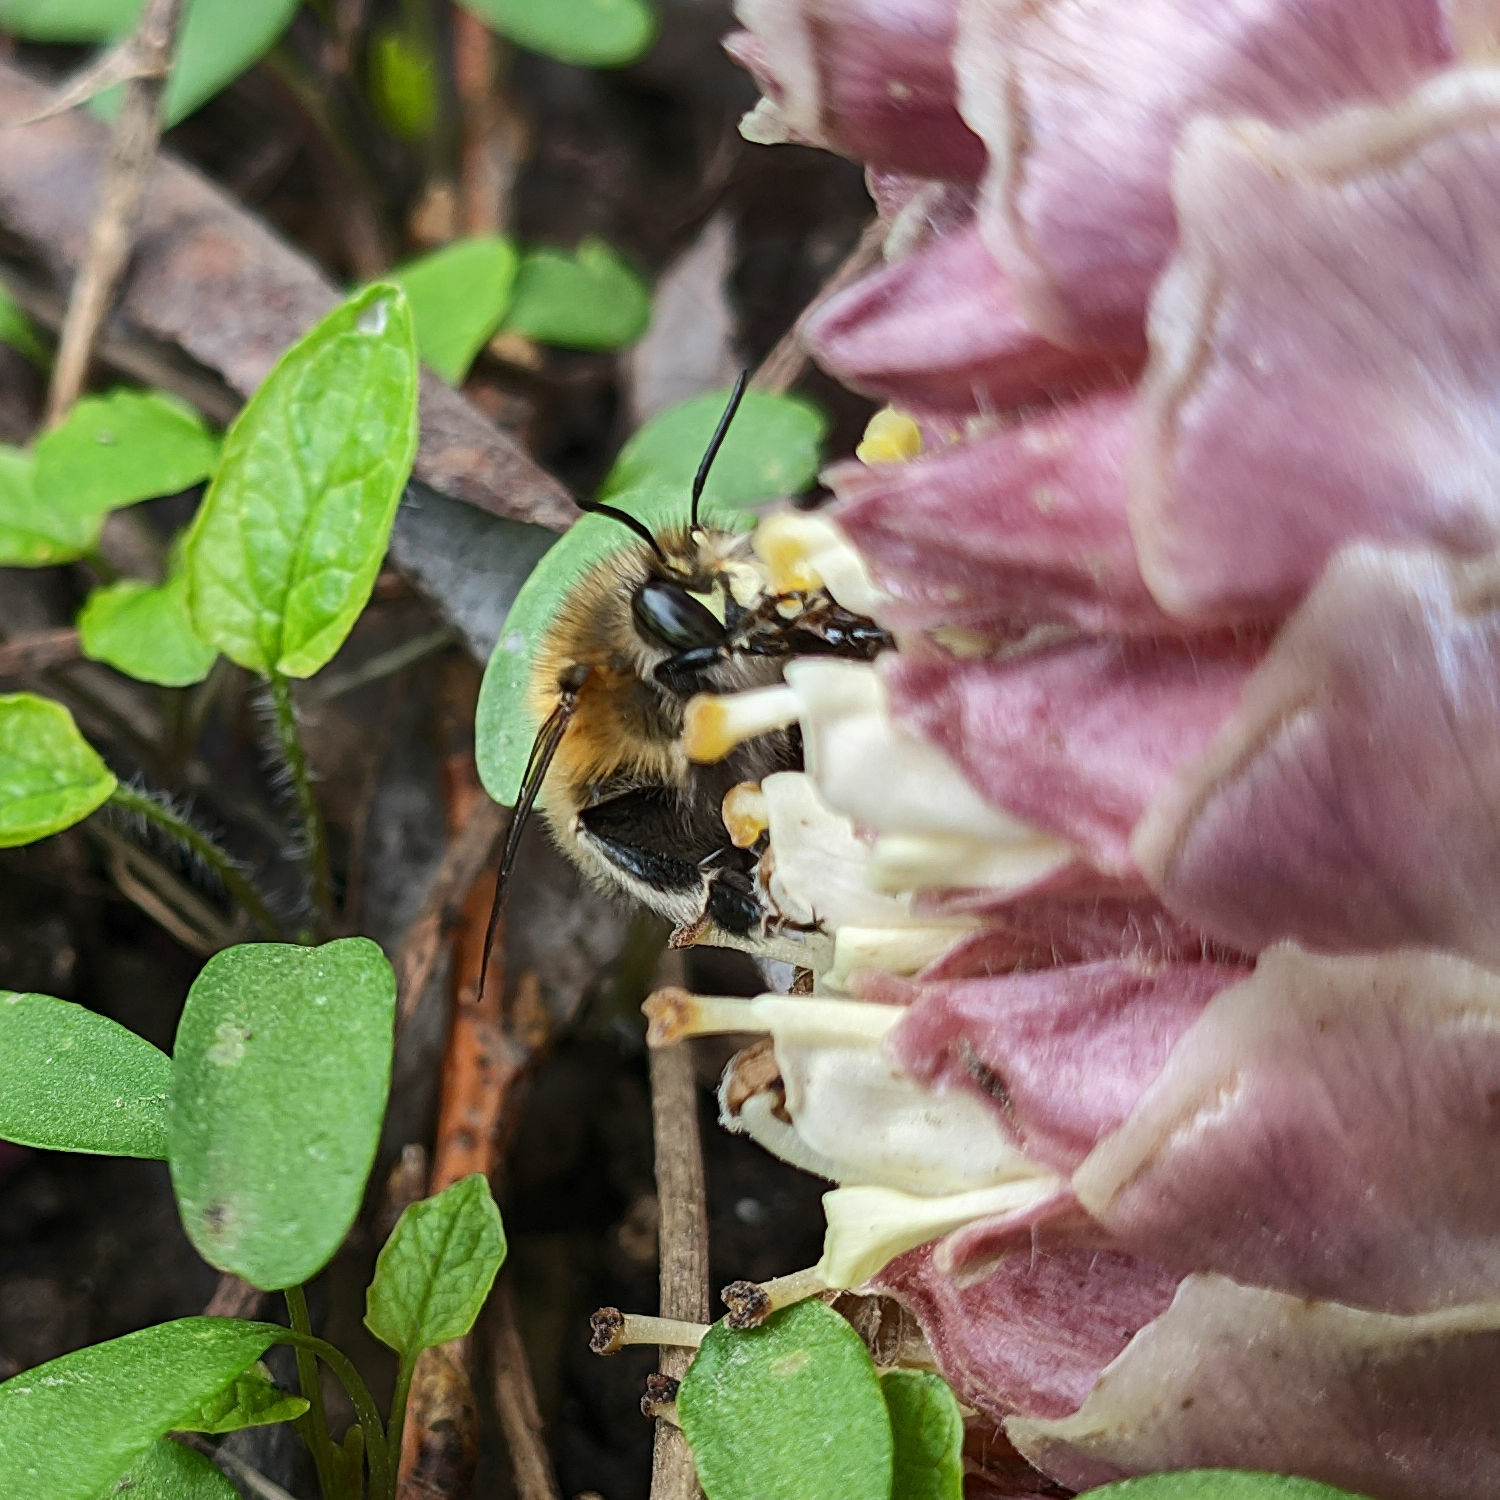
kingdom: Animalia
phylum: Arthropoda
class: Insecta
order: Hymenoptera
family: Apidae
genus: Anthophora
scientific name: Anthophora plumipes
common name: Hairy-footed flower bee
